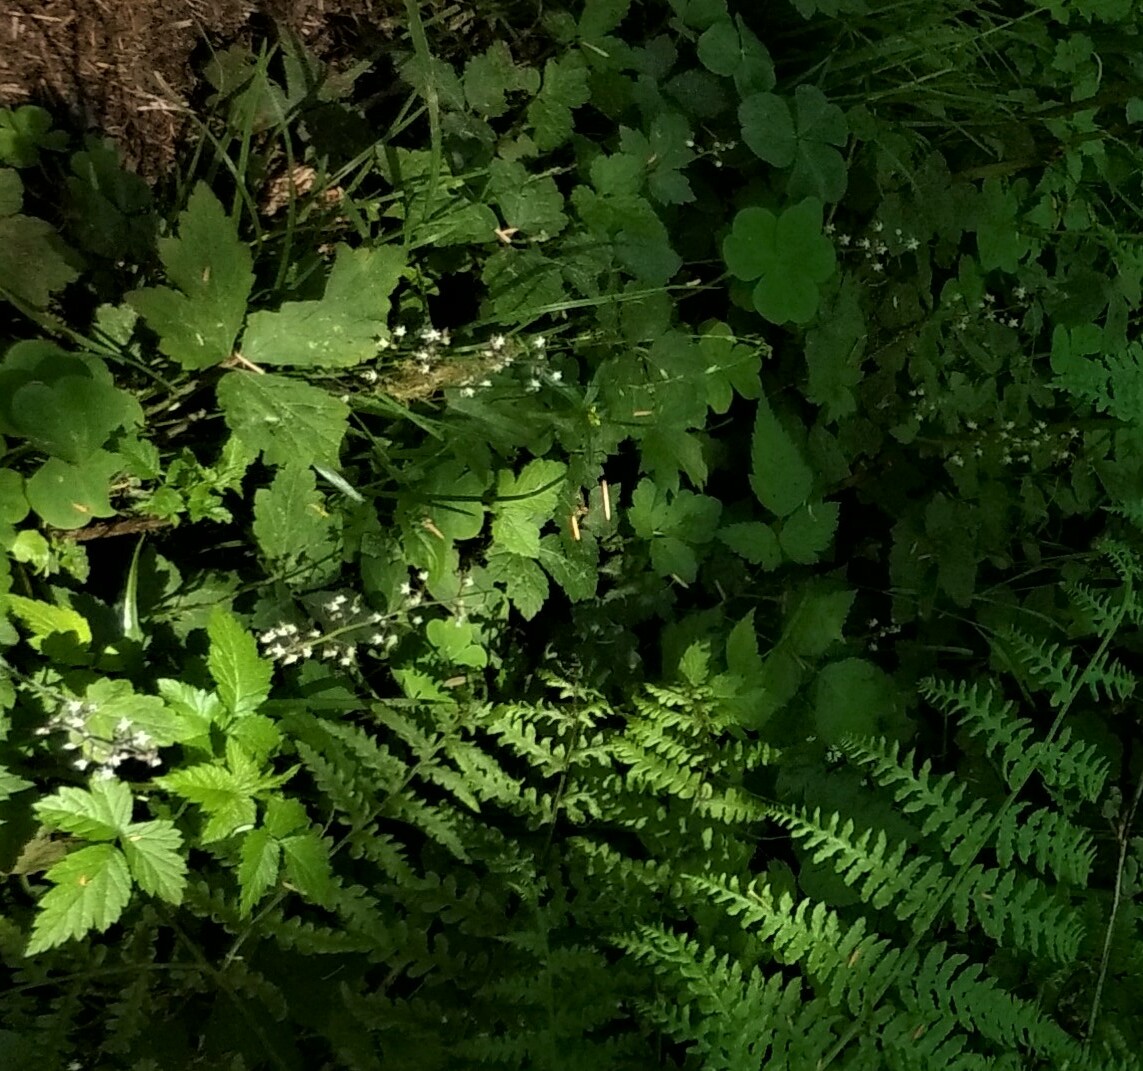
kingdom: Plantae
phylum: Tracheophyta
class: Magnoliopsida
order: Saxifragales
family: Saxifragaceae
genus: Tiarella
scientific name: Tiarella trifoliata
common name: Sugar-scoop
